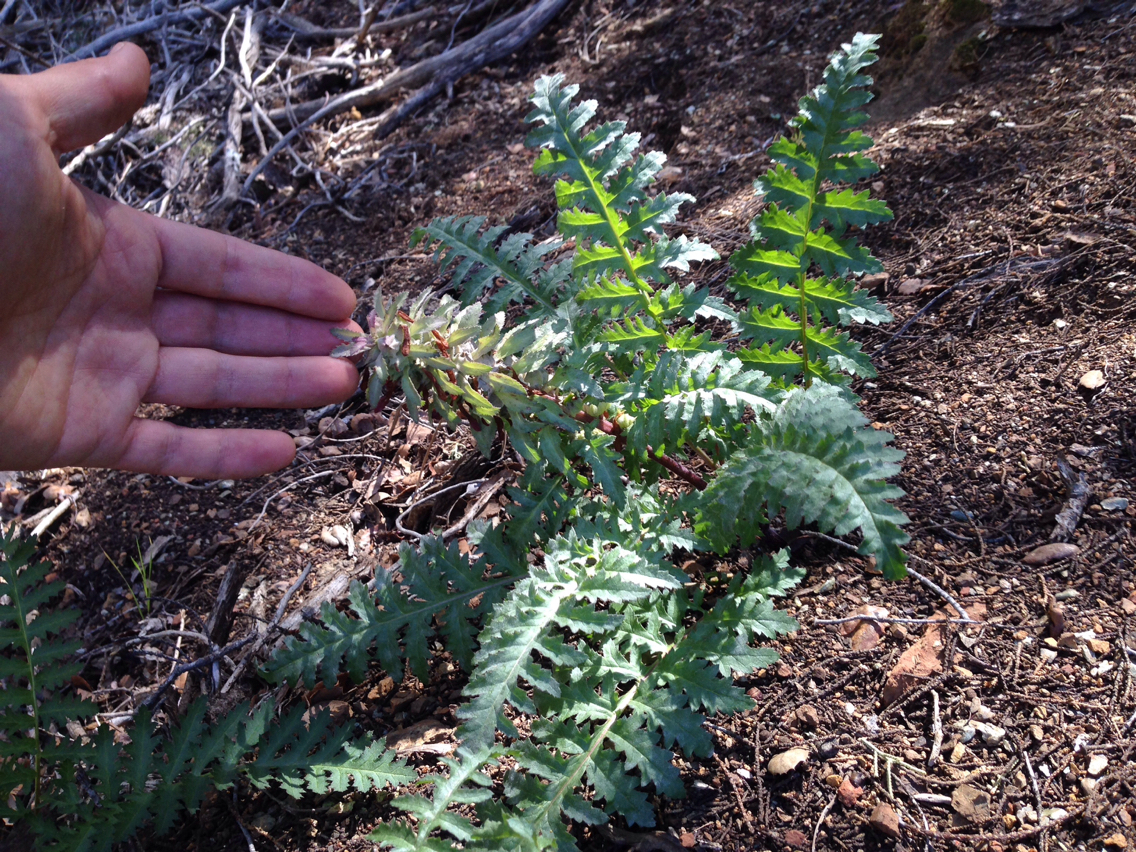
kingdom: Plantae
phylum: Tracheophyta
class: Magnoliopsida
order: Lamiales
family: Orobanchaceae
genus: Pedicularis
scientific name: Pedicularis densiflora
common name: Indian warrior
